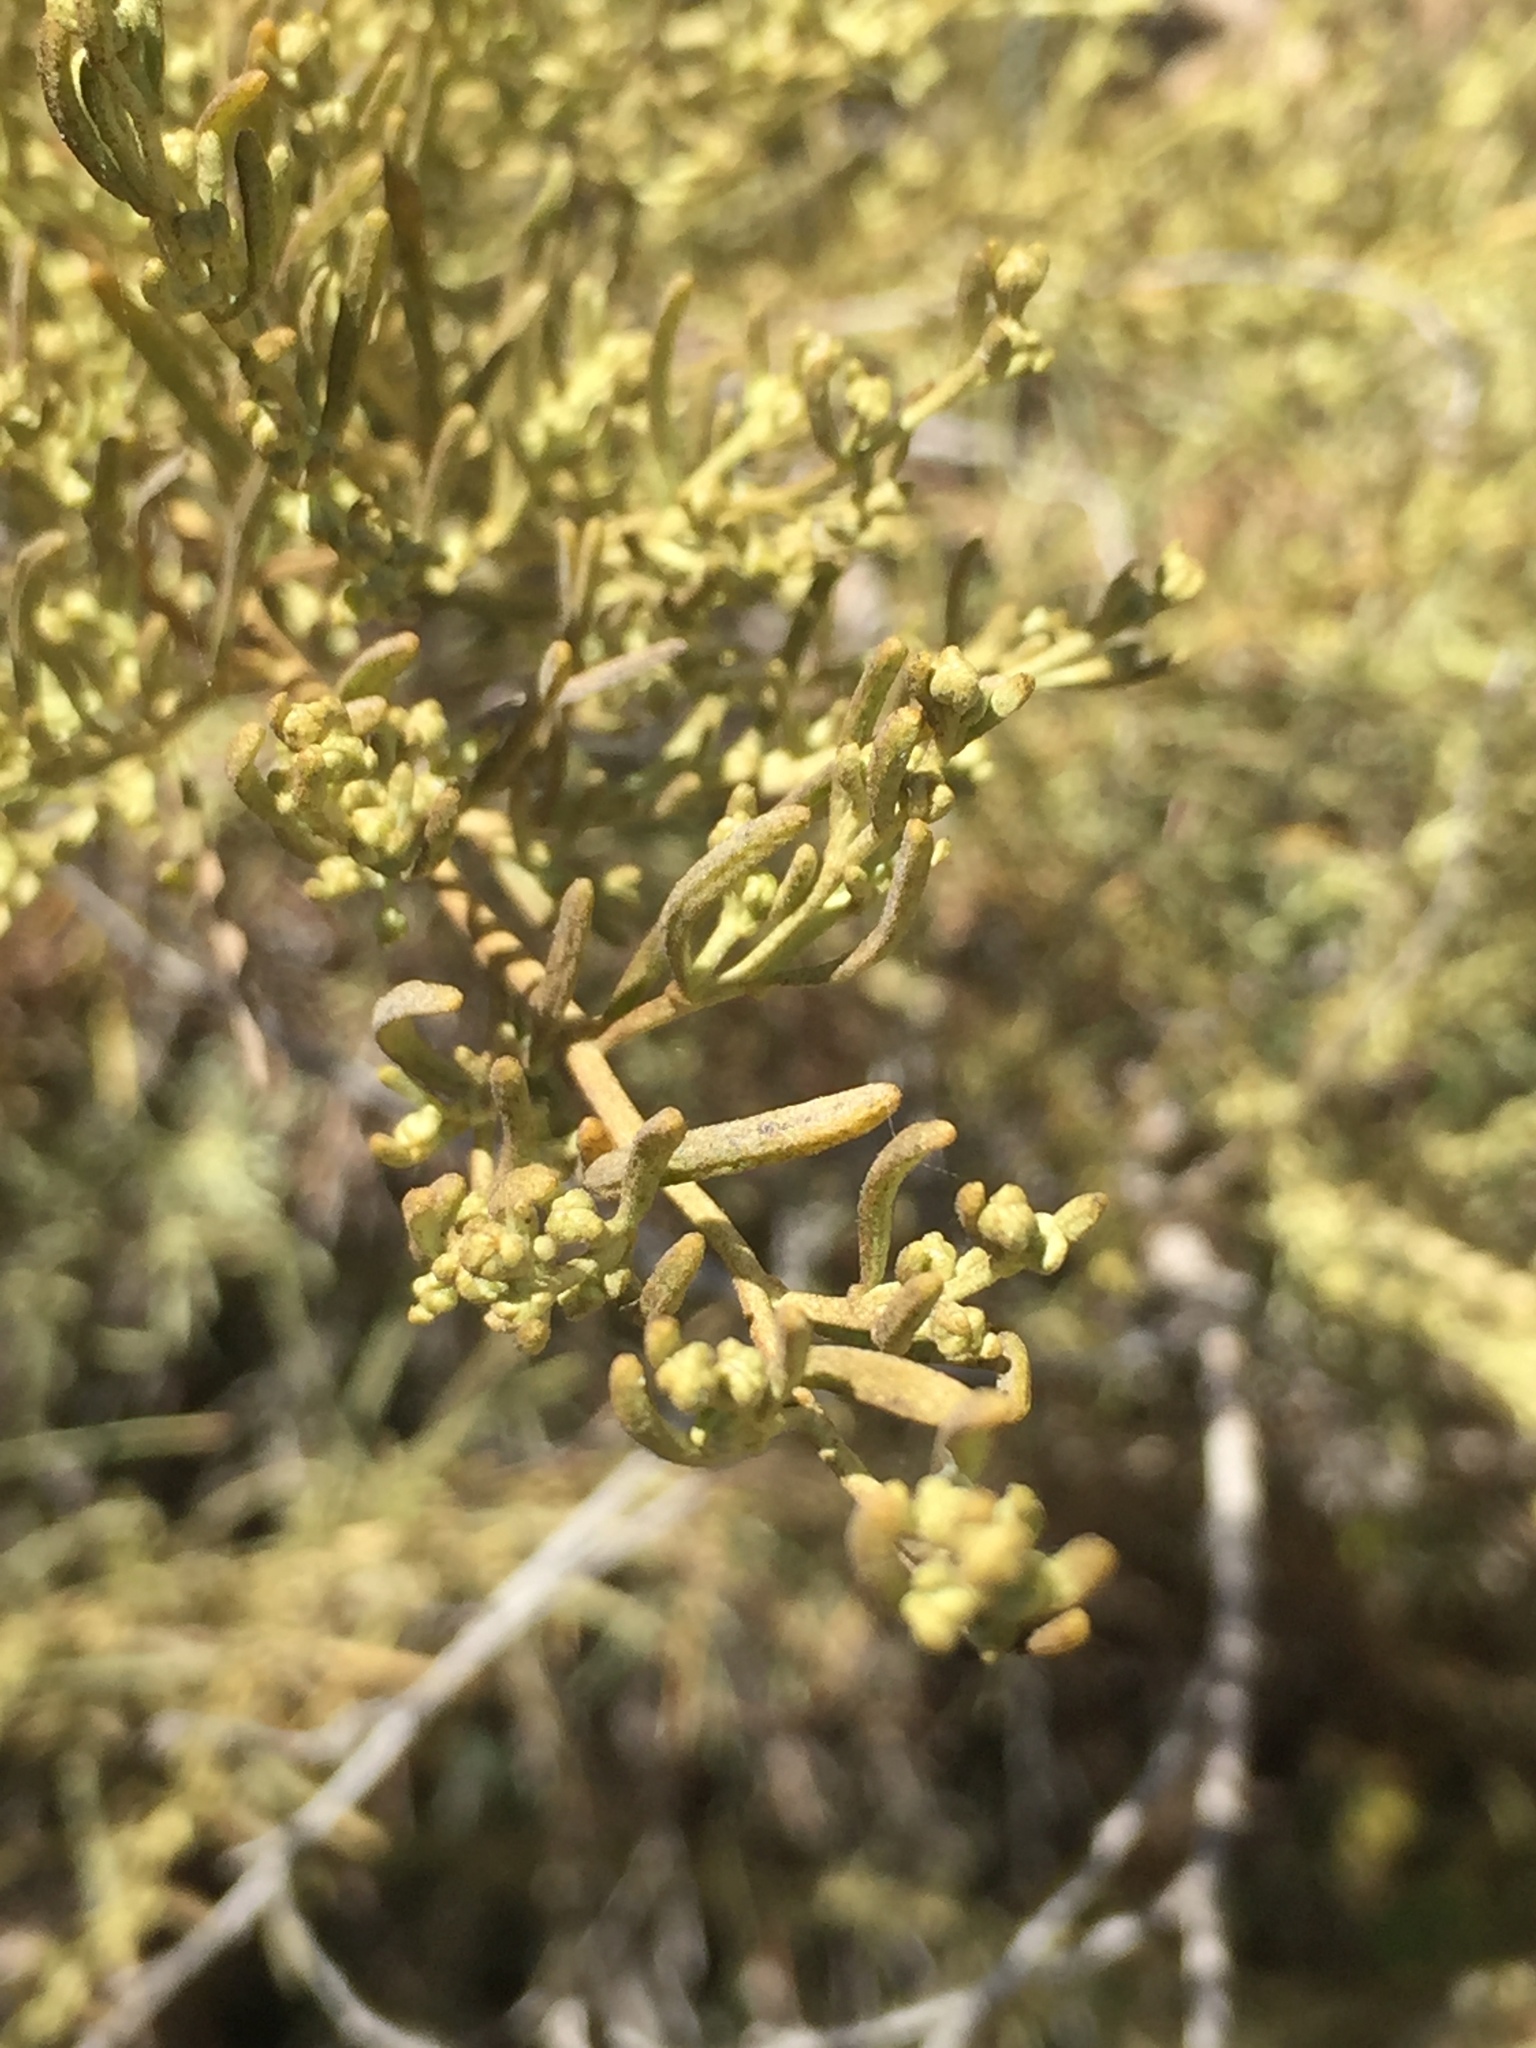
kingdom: Plantae
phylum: Tracheophyta
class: Magnoliopsida
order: Asterales
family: Asteraceae
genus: Artemisia
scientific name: Artemisia californica
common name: California sagebrush
